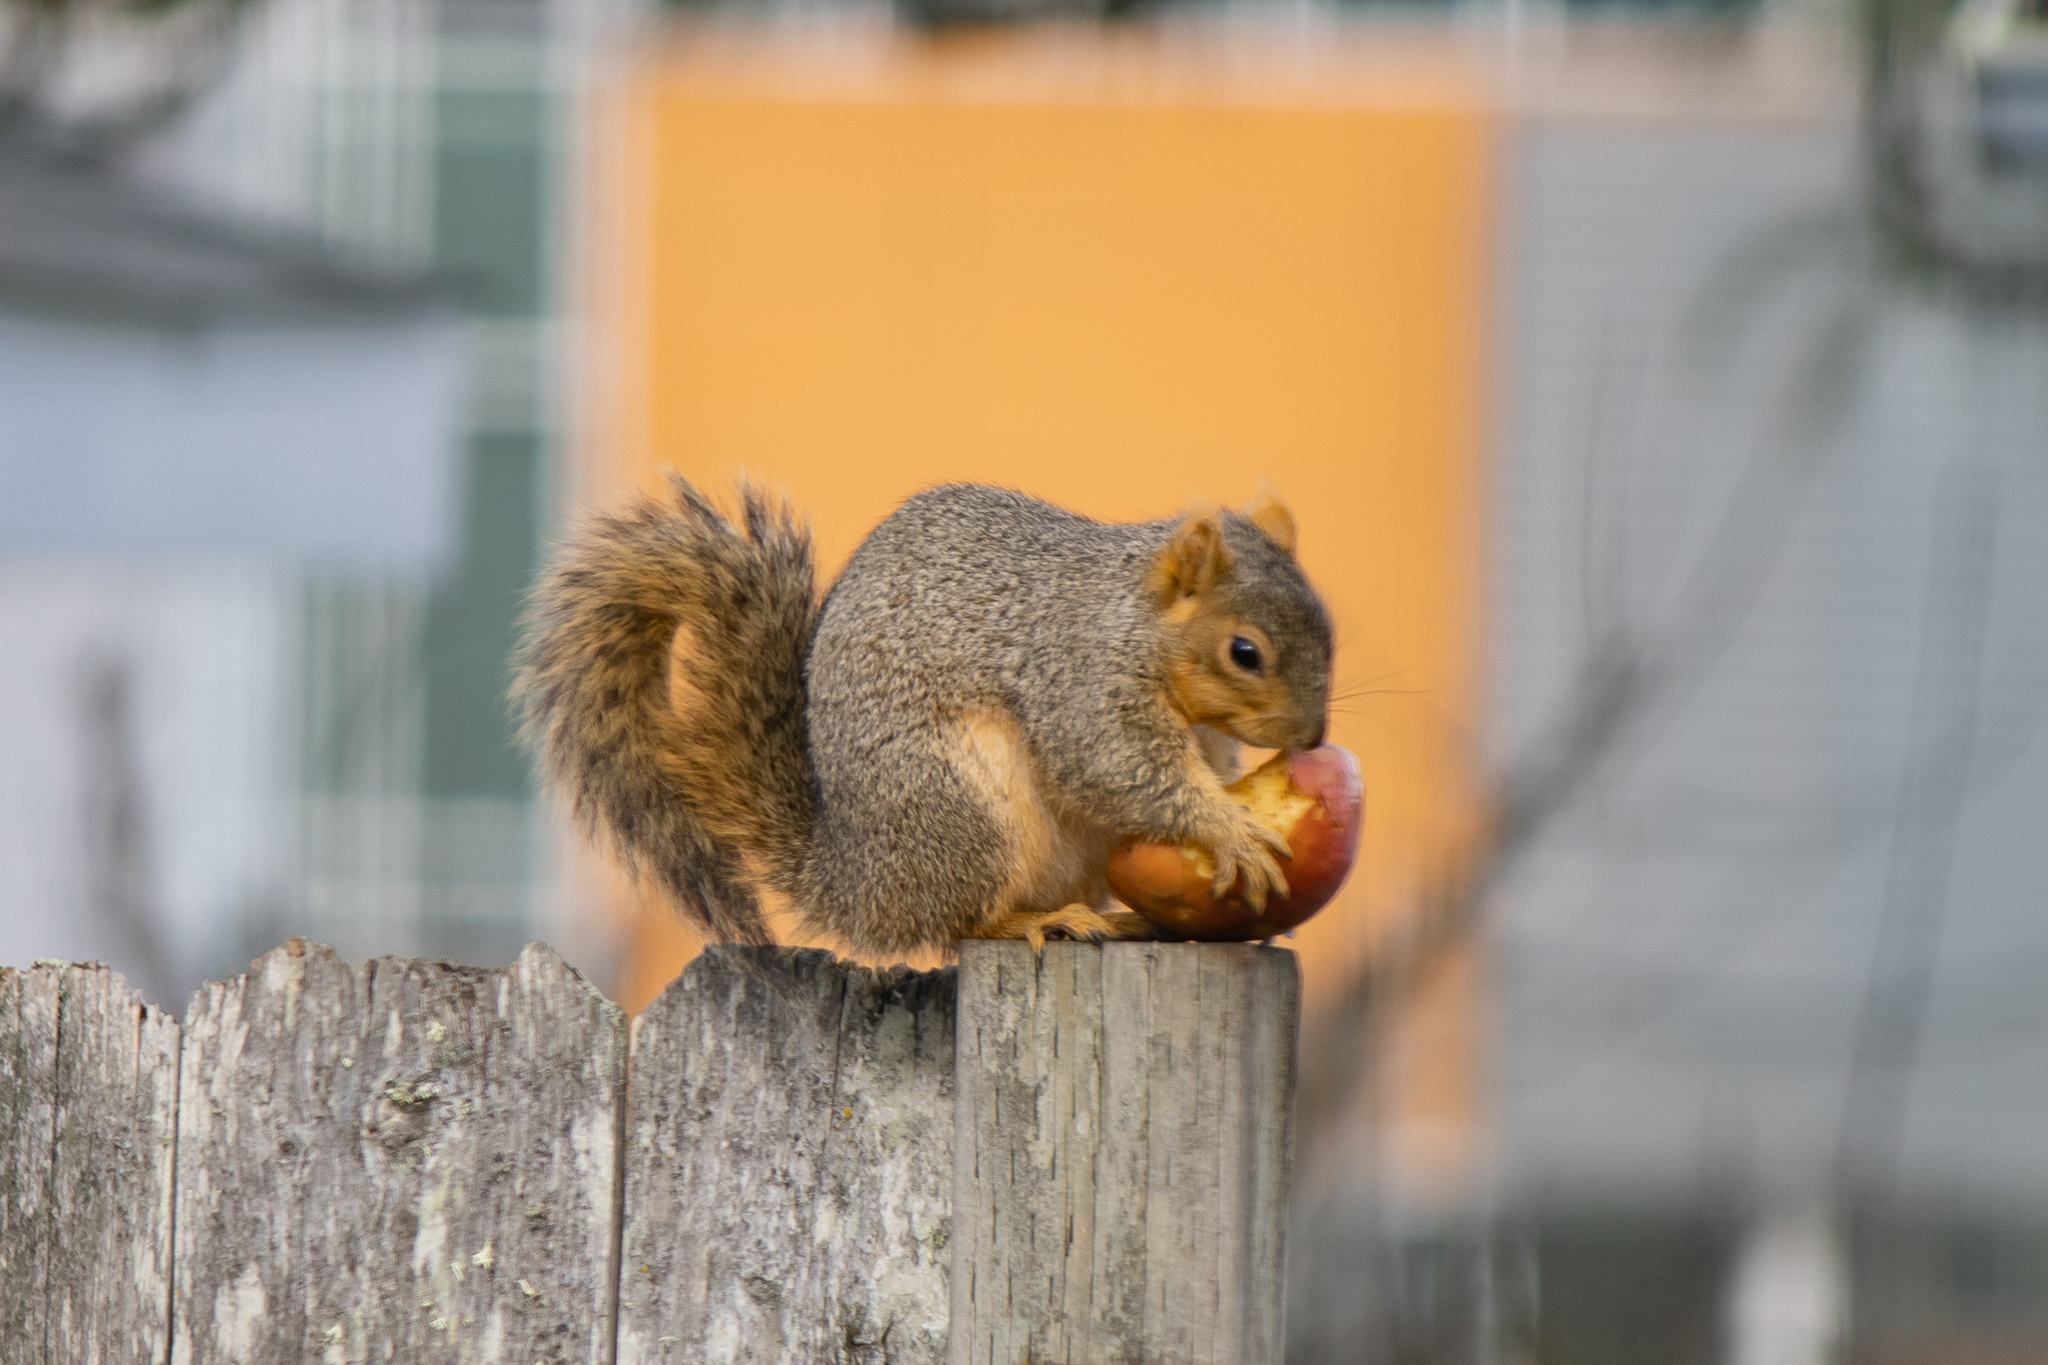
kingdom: Animalia
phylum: Chordata
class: Mammalia
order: Rodentia
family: Sciuridae
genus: Sciurus
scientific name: Sciurus niger
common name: Fox squirrel
